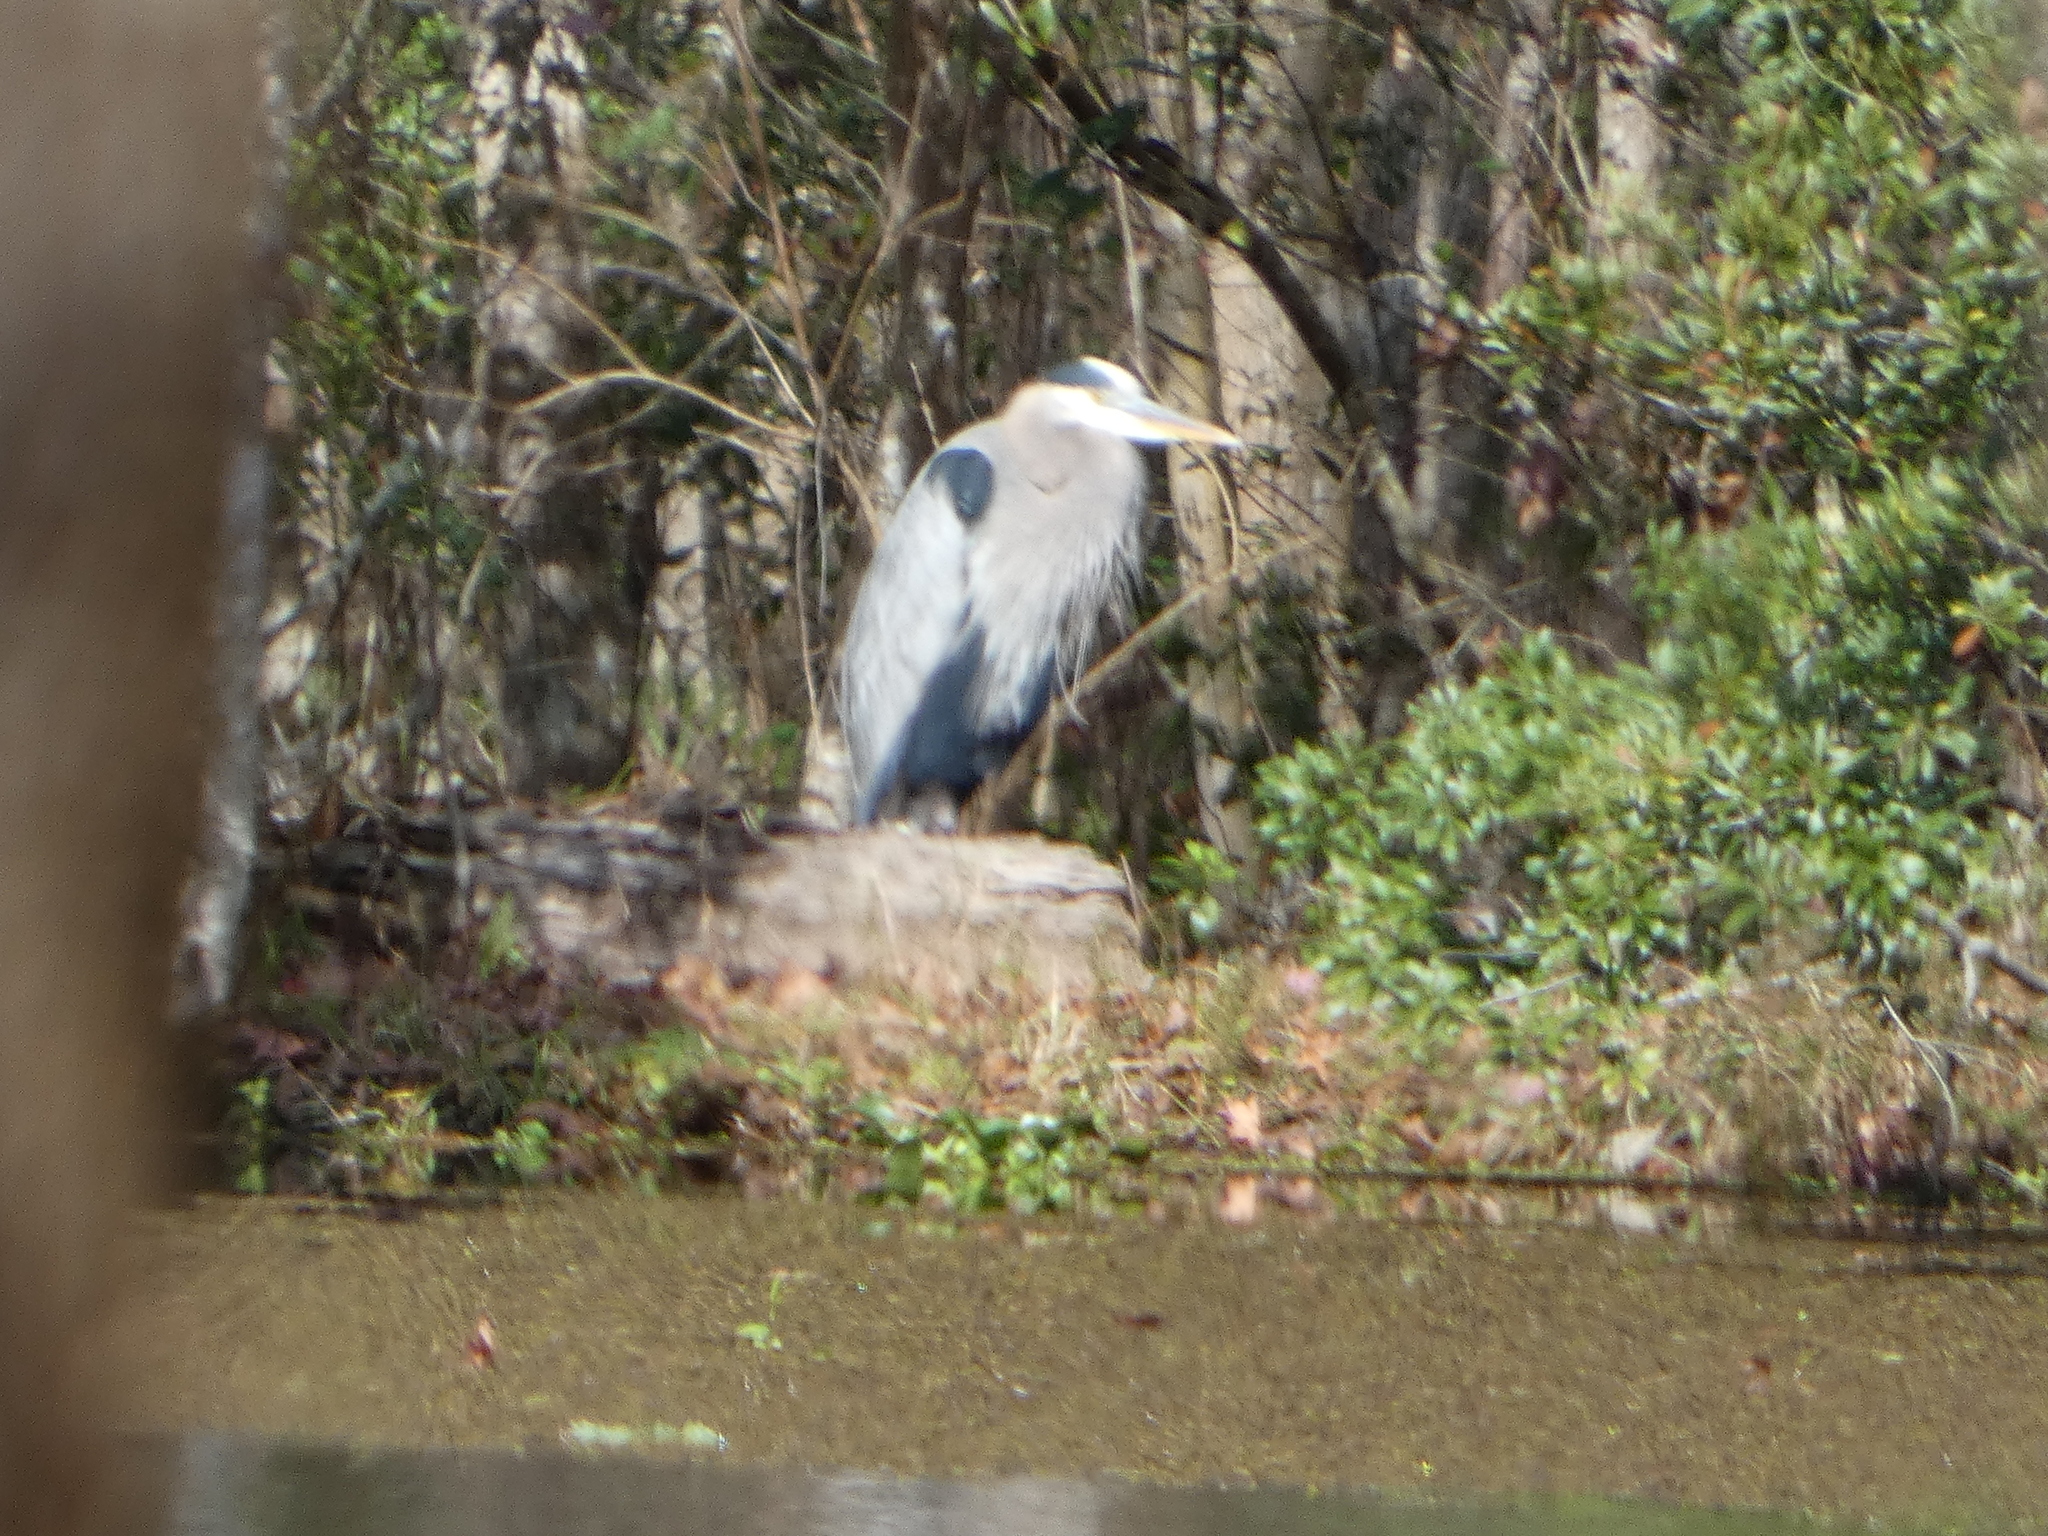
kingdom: Animalia
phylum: Chordata
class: Aves
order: Pelecaniformes
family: Ardeidae
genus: Ardea
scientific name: Ardea herodias
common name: Great blue heron
